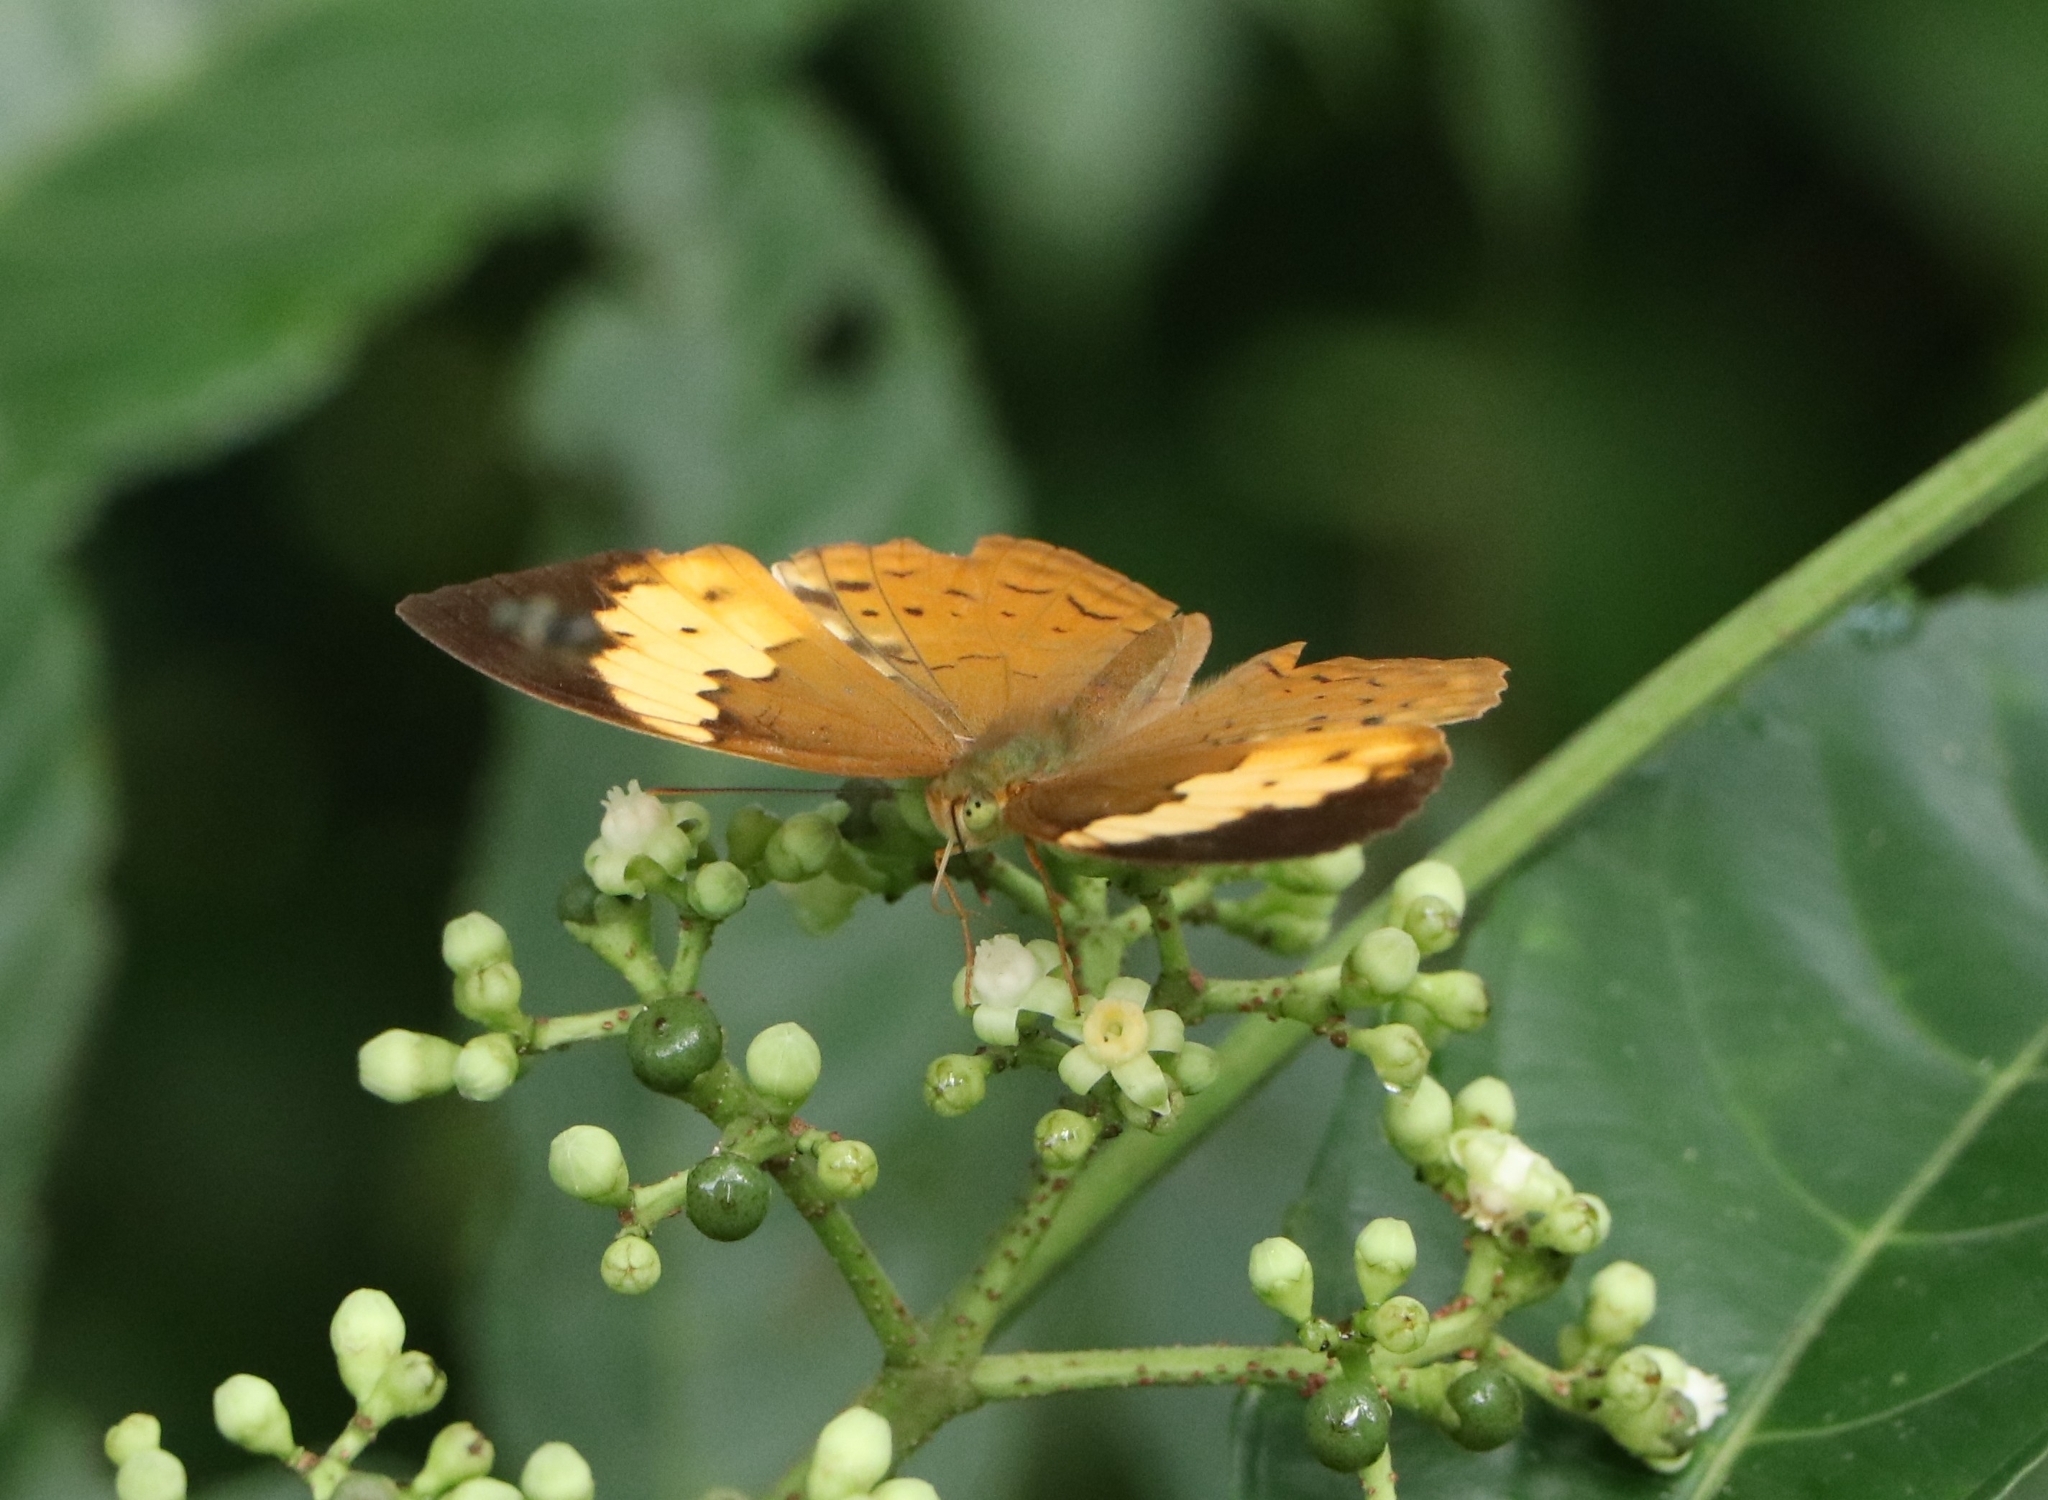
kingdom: Animalia
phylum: Arthropoda
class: Insecta
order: Lepidoptera
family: Nymphalidae
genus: Cupha
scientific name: Cupha erymanthis
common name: Rustic
